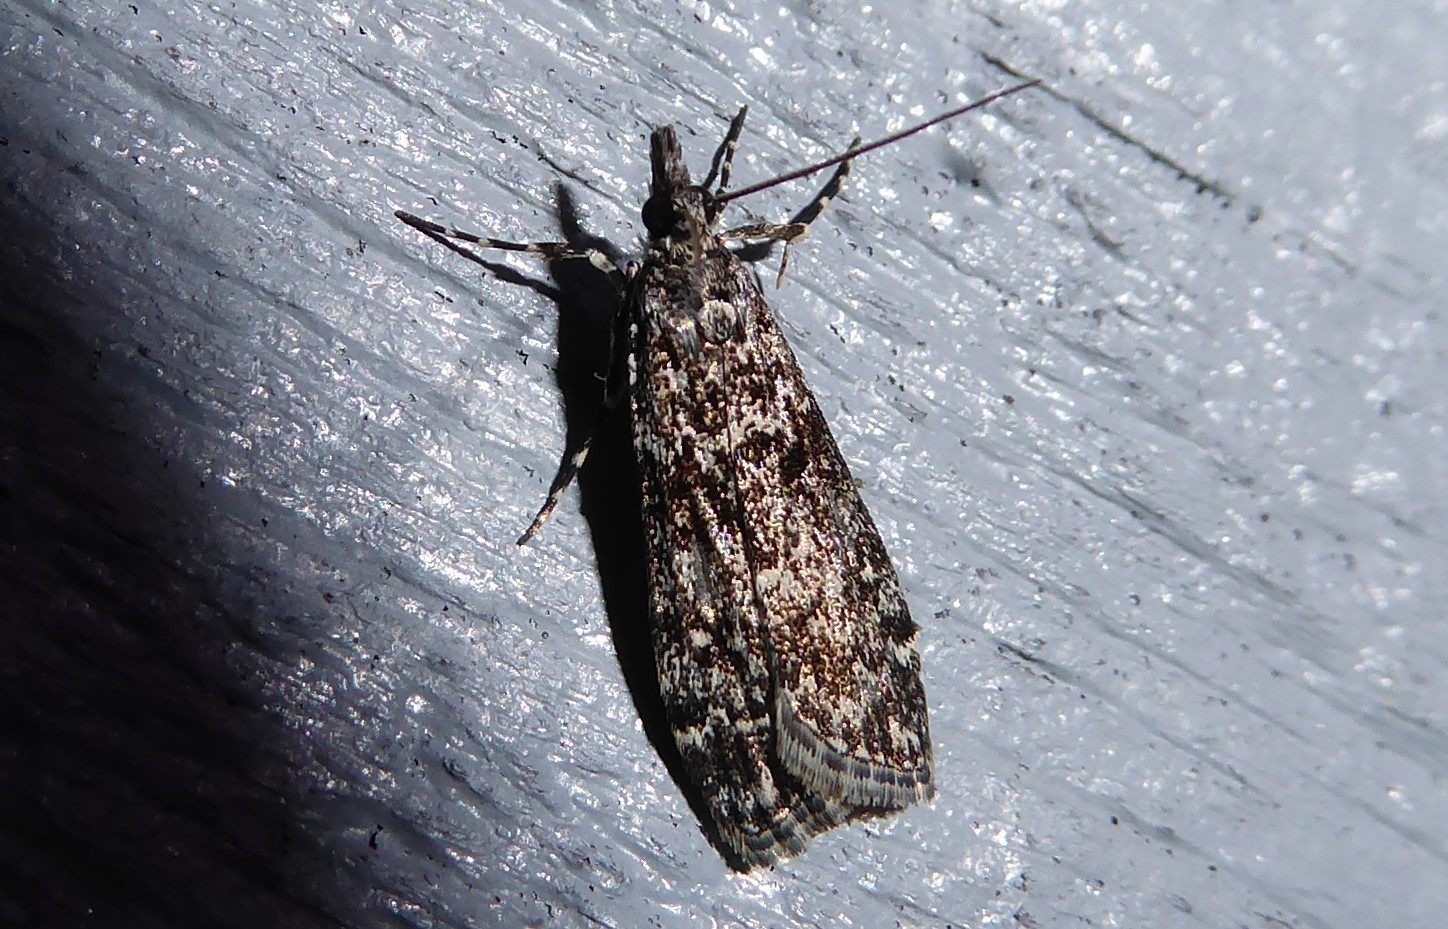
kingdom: Animalia
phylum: Arthropoda
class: Insecta
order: Lepidoptera
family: Crambidae
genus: Eudonia
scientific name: Eudonia philerga
